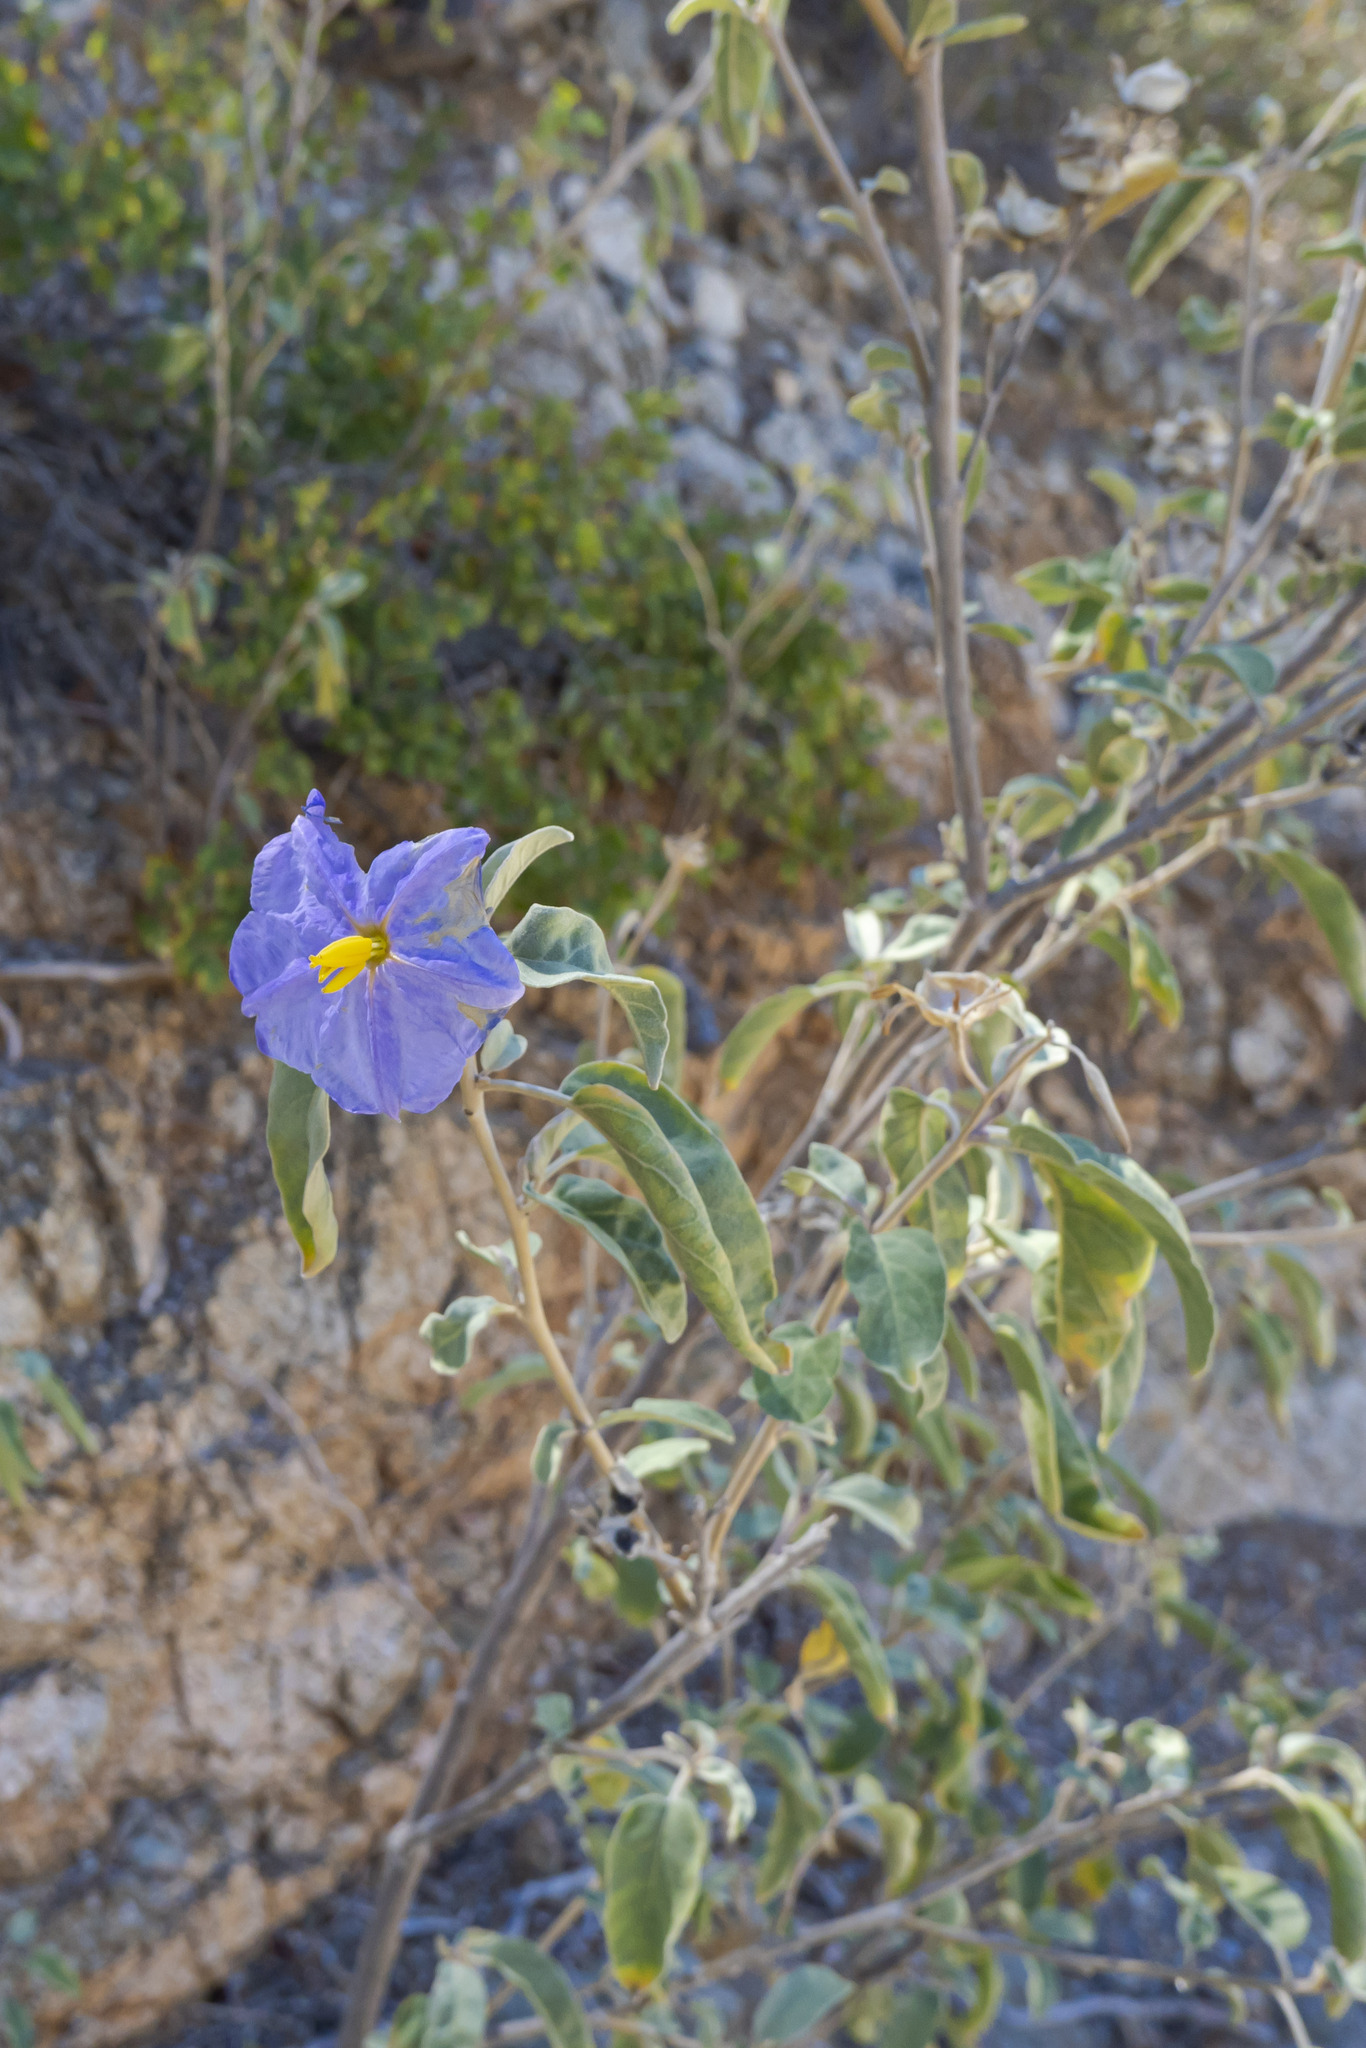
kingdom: Plantae
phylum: Tracheophyta
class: Magnoliopsida
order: Solanales
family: Solanaceae
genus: Solanum
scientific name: Solanum hindsianum
